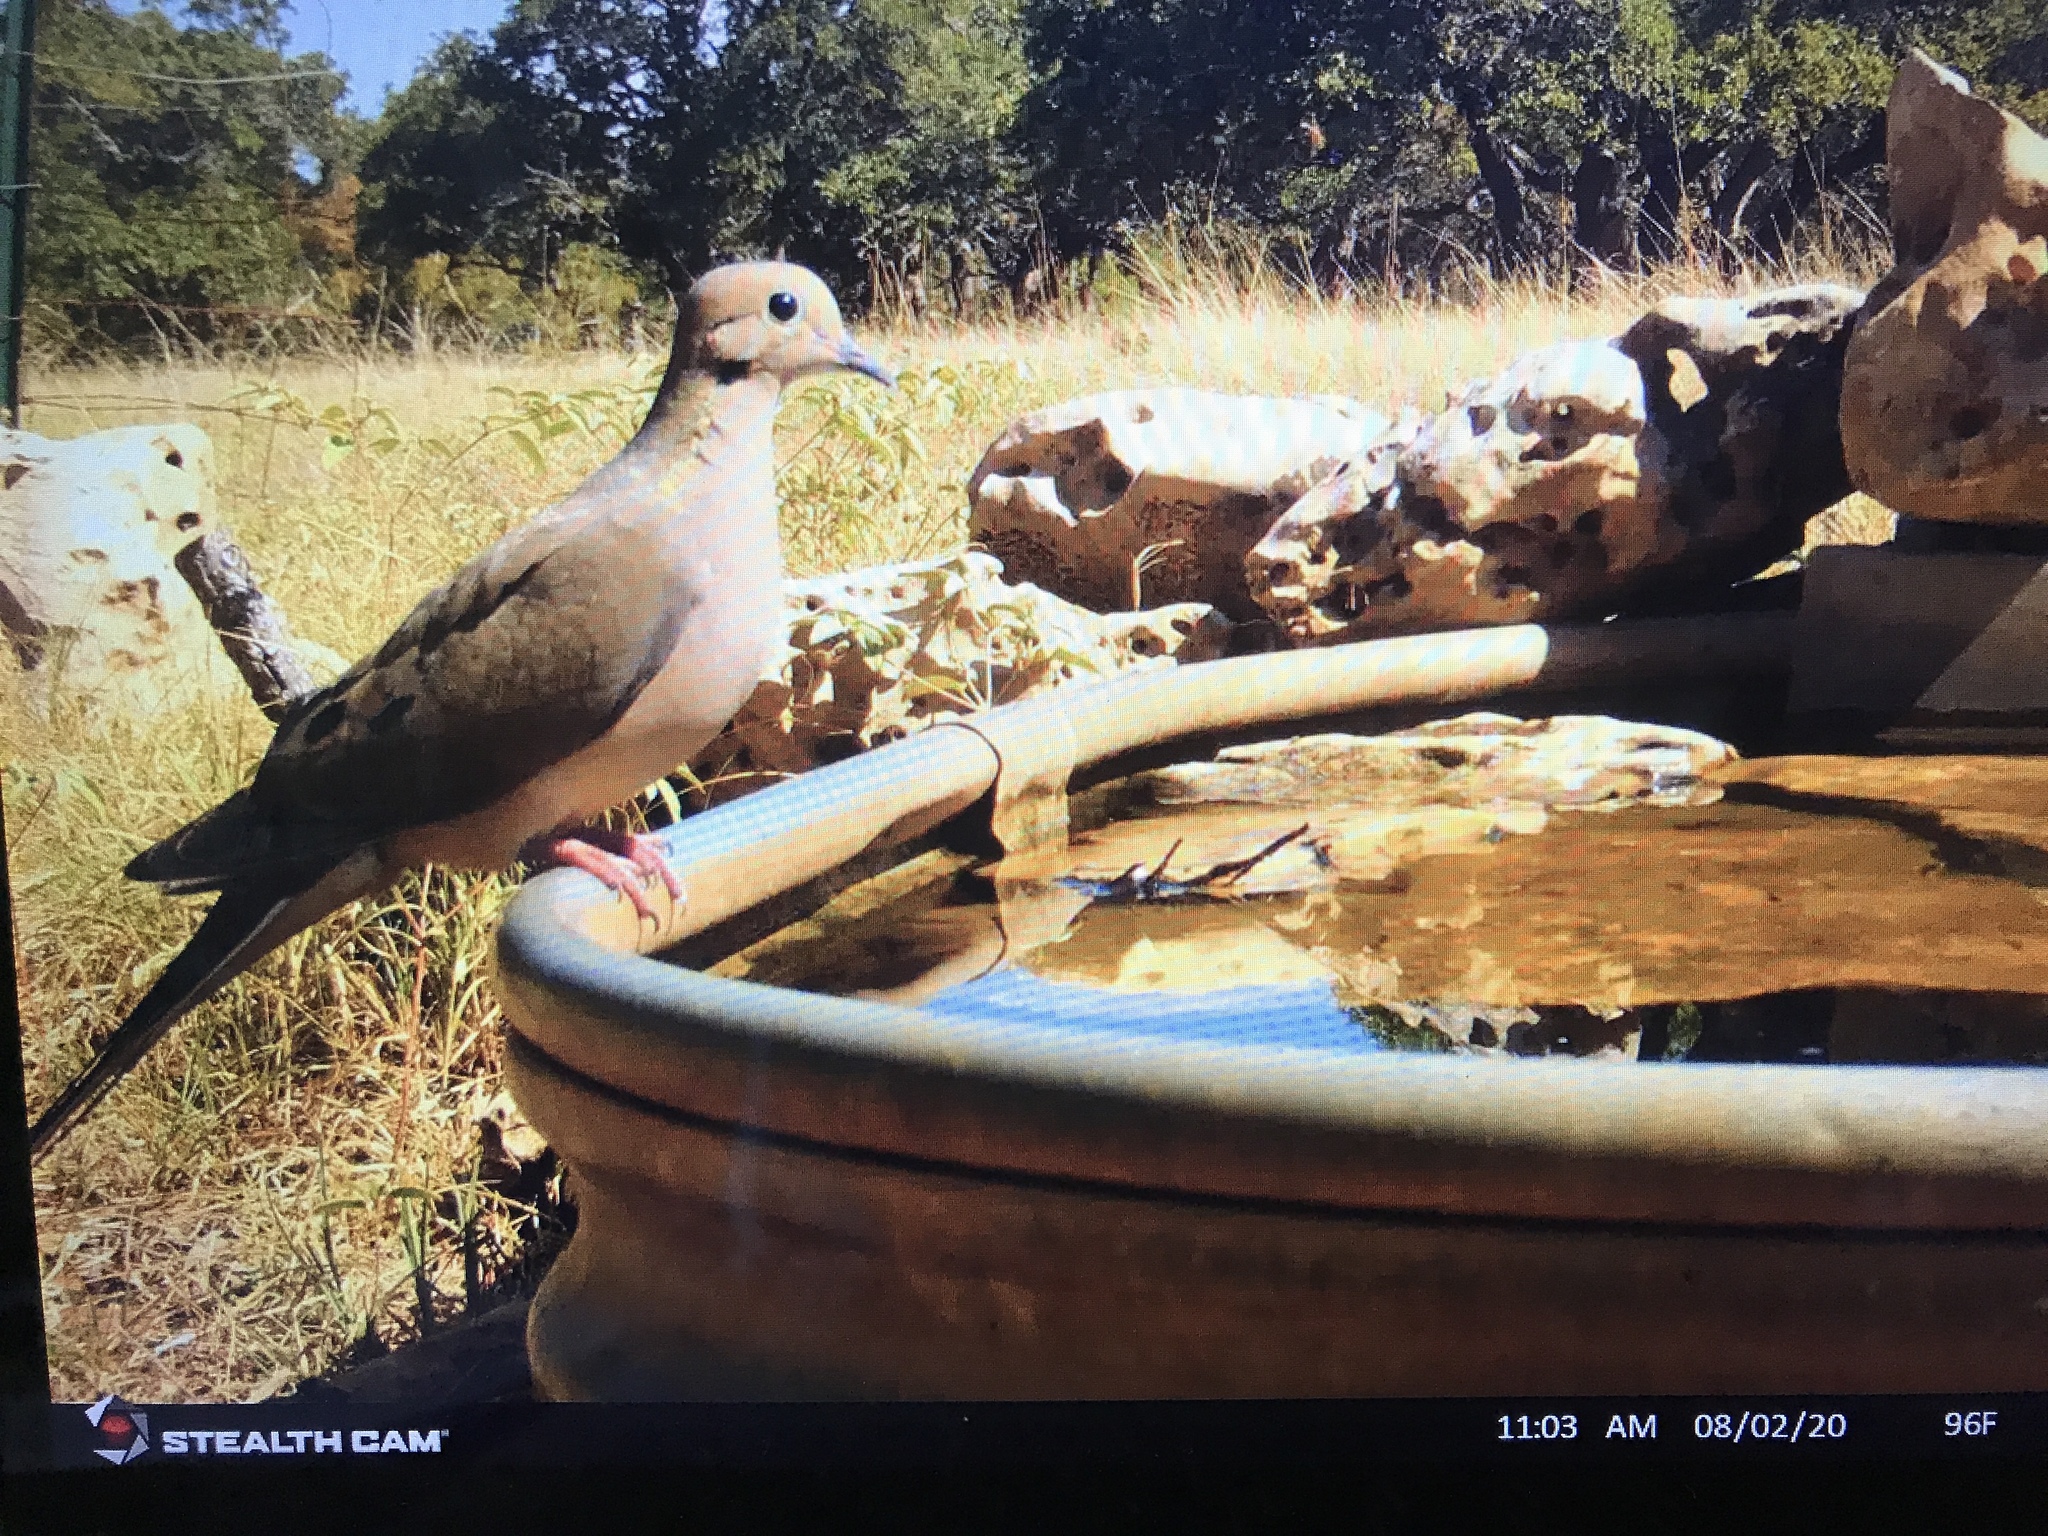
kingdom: Animalia
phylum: Chordata
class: Aves
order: Columbiformes
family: Columbidae
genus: Zenaida
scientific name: Zenaida macroura
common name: Mourning dove
